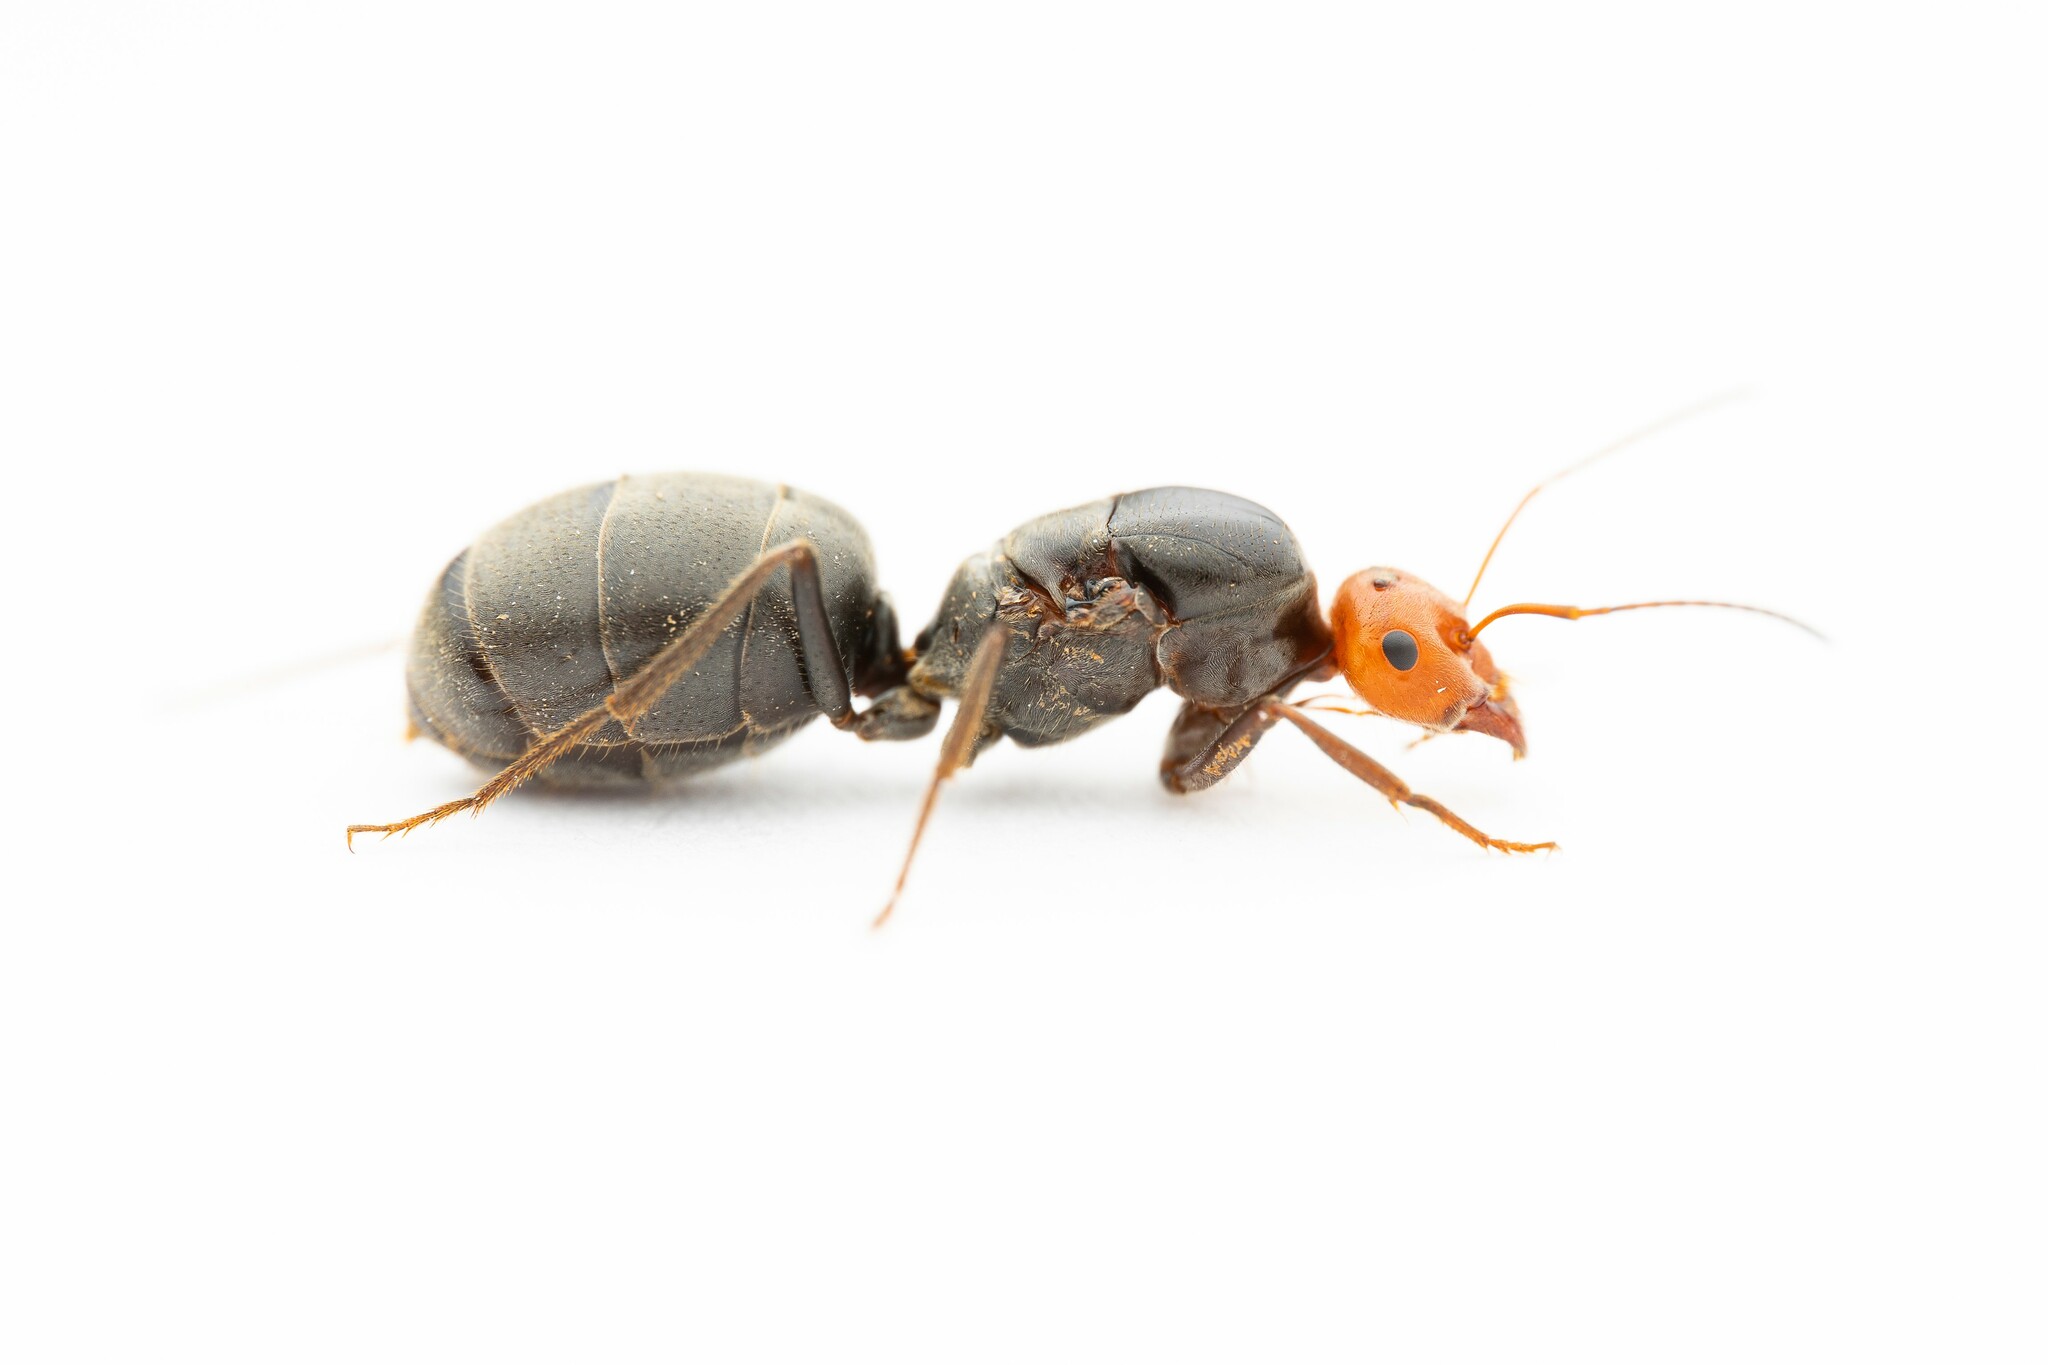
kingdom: Animalia
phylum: Arthropoda
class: Insecta
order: Hymenoptera
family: Formicidae
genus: Myrmecocystus
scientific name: Myrmecocystus placodops
